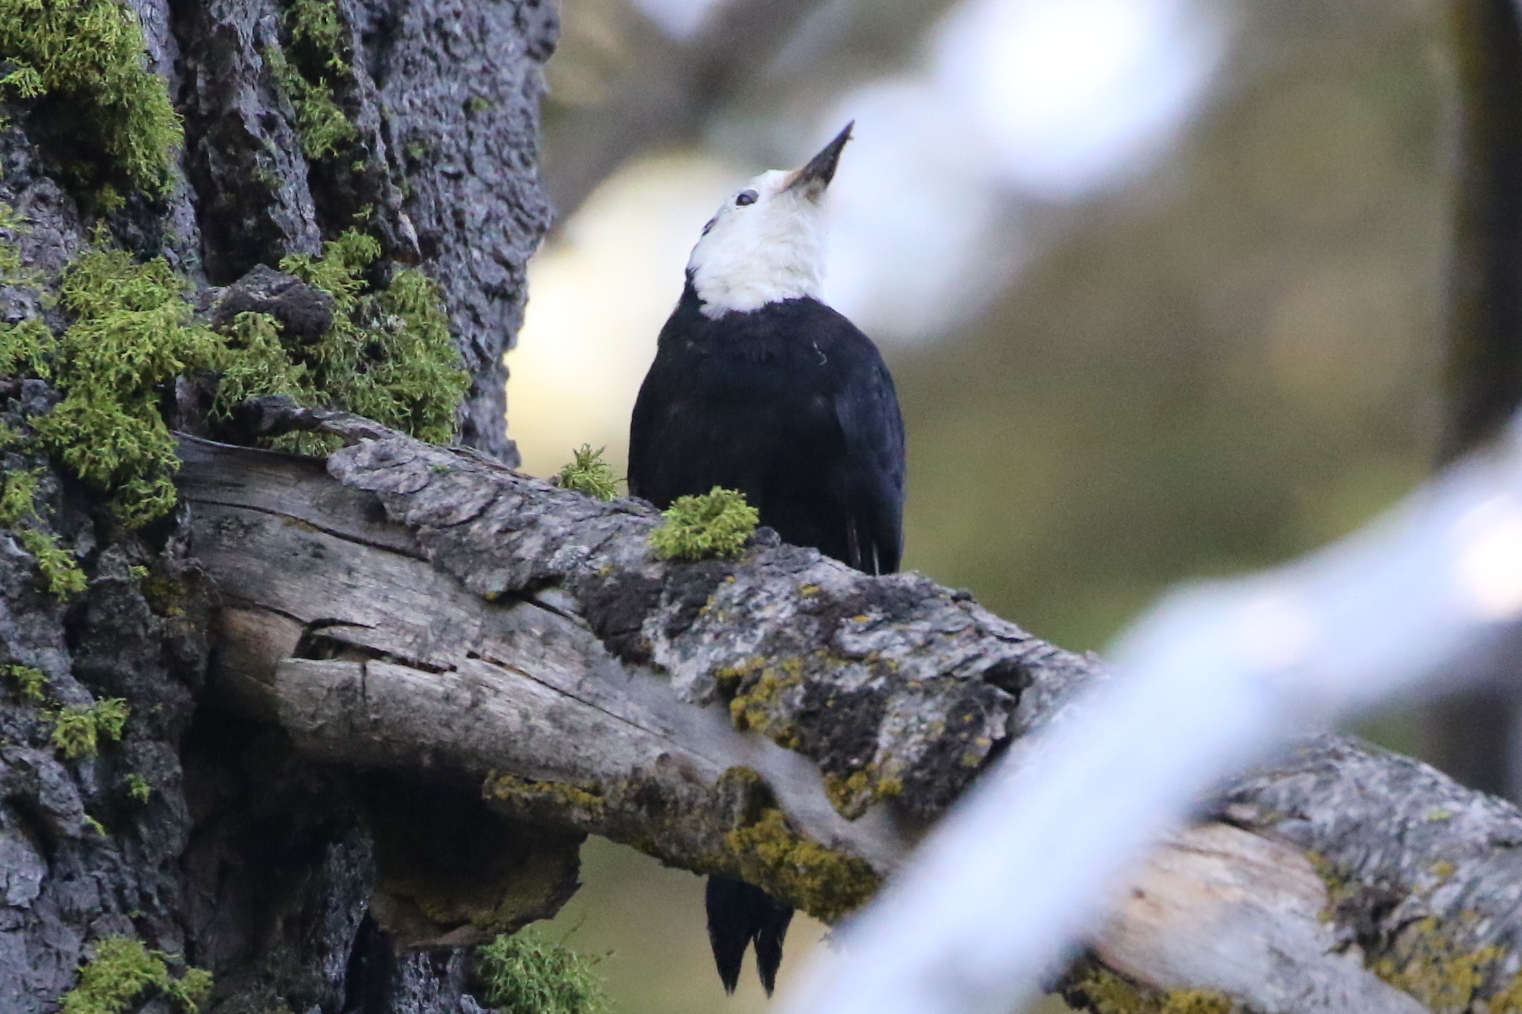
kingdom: Animalia
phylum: Chordata
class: Aves
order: Piciformes
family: Picidae
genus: Leuconotopicus
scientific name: Leuconotopicus albolarvatus
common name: White-headed woodpecker
